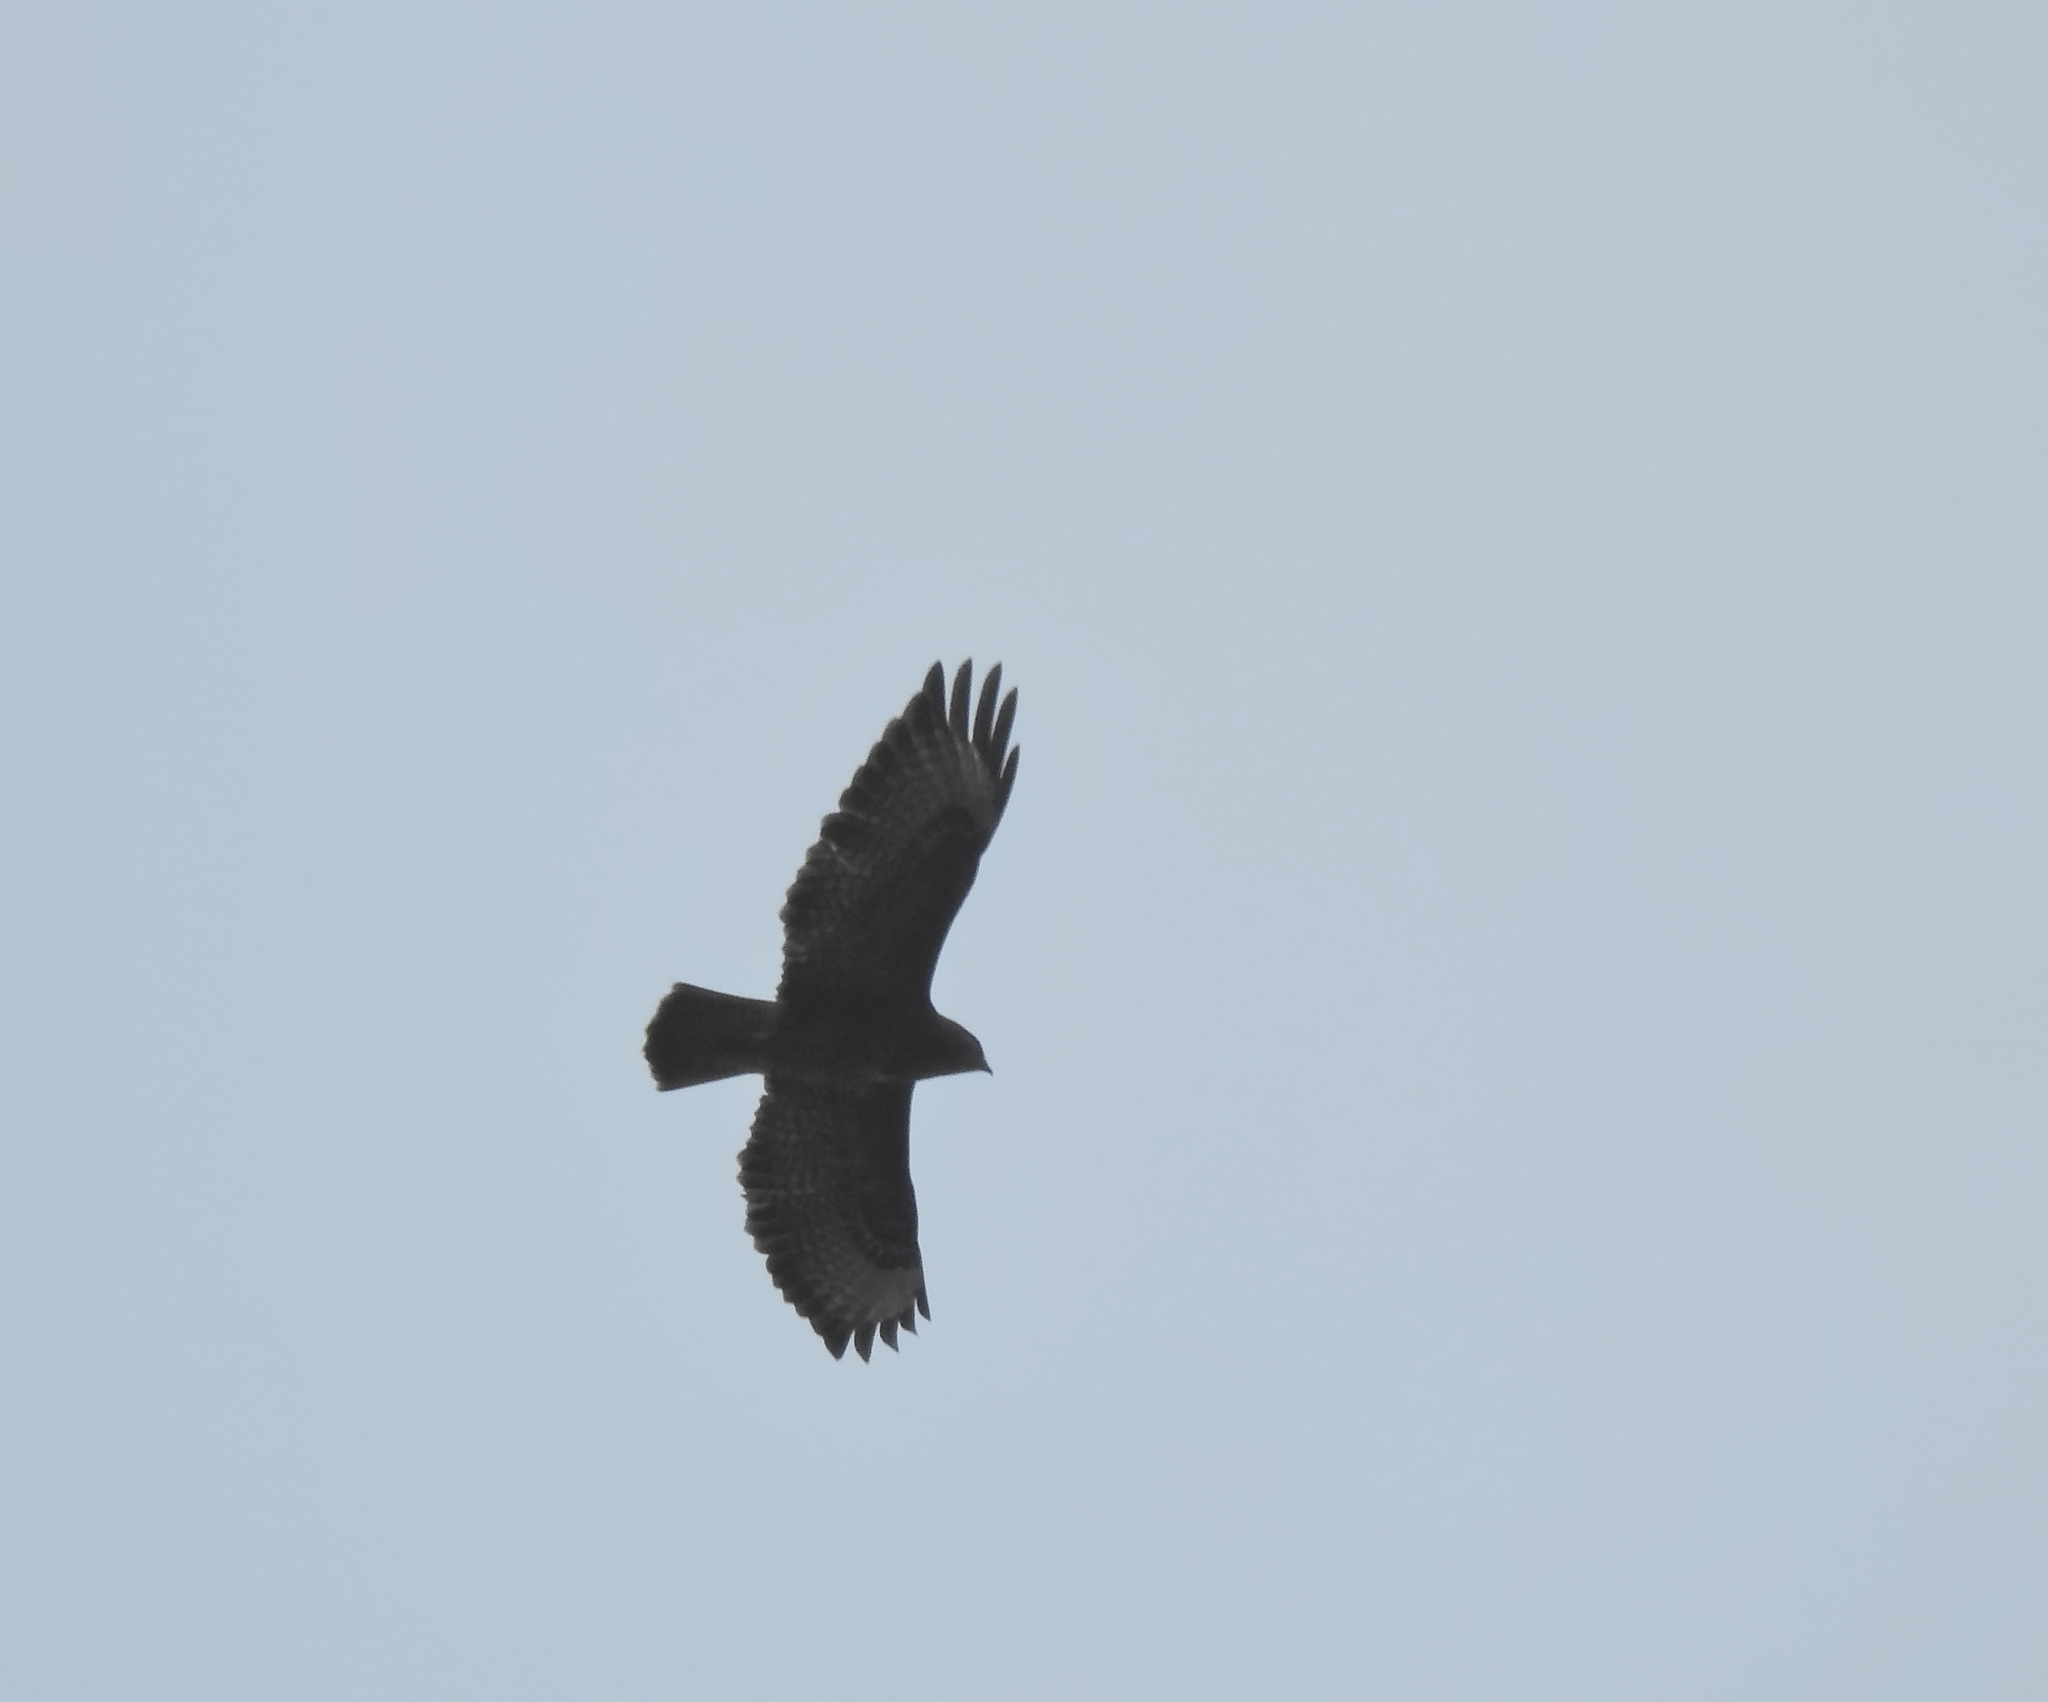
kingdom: Animalia
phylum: Chordata
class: Aves
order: Accipitriformes
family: Accipitridae
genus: Buteo
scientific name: Buteo buteo
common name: Common buzzard
